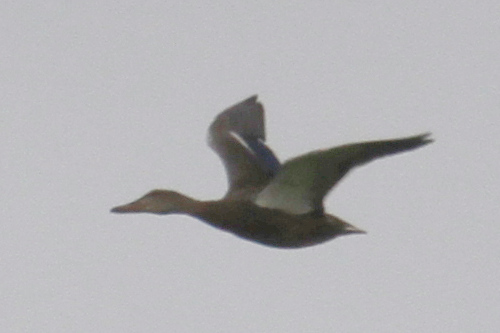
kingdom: Animalia
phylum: Chordata
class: Aves
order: Anseriformes
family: Anatidae
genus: Anas
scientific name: Anas platyrhynchos
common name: Mallard
